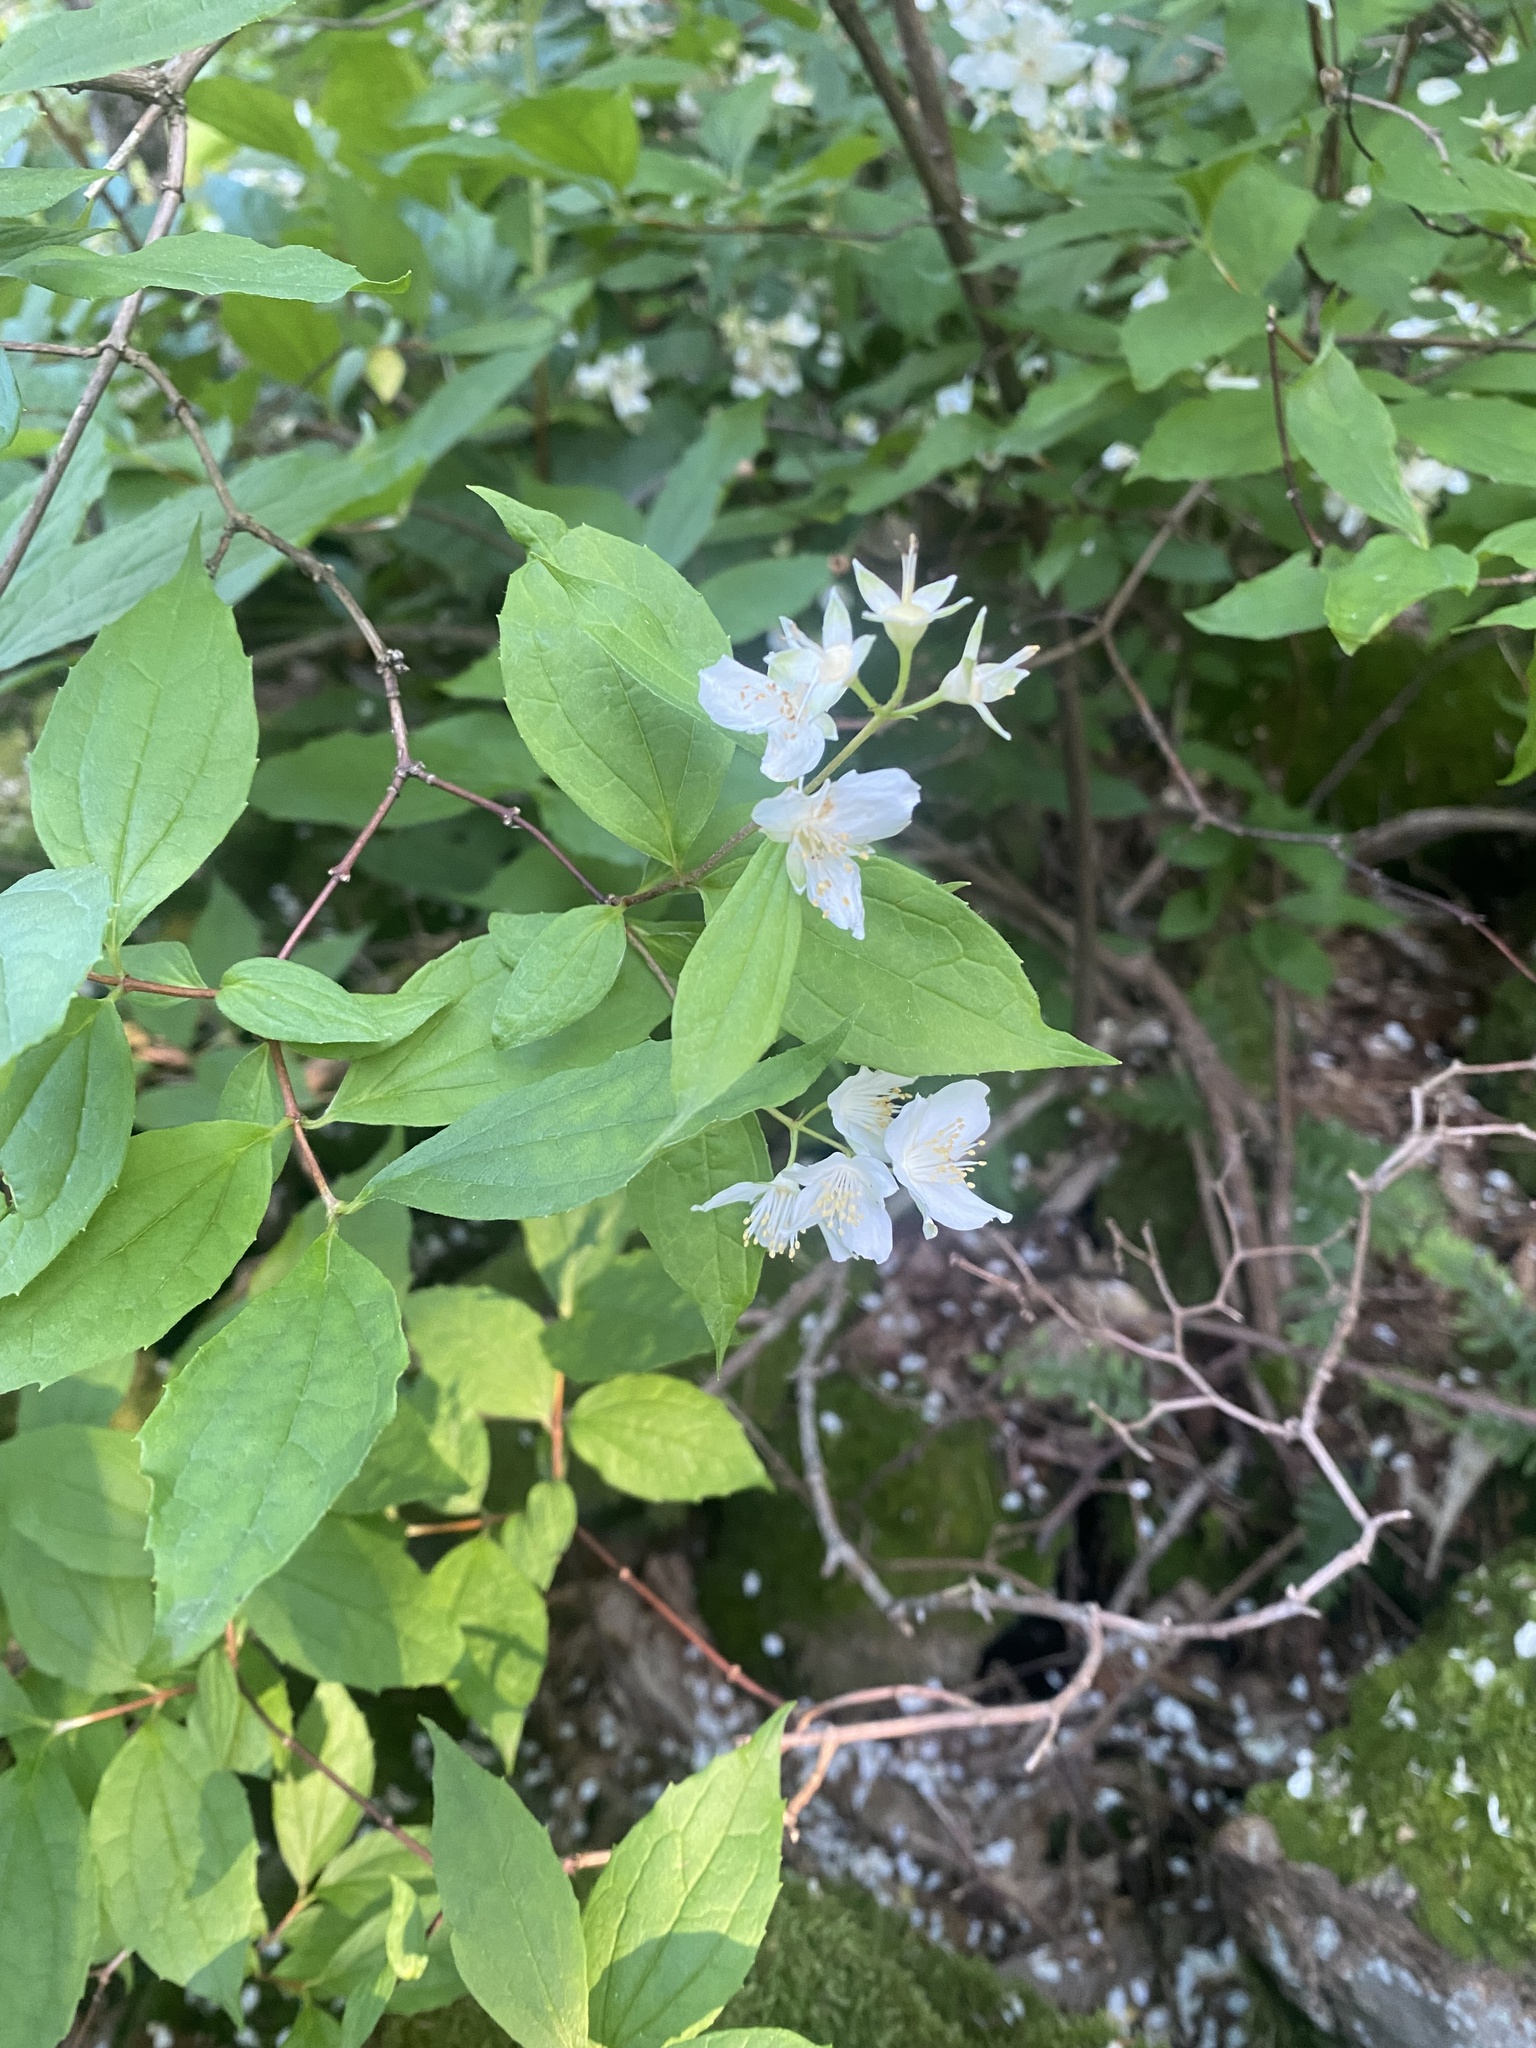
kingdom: Plantae
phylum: Tracheophyta
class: Magnoliopsida
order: Cornales
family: Hydrangeaceae
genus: Philadelphus
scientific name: Philadelphus coronarius
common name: Mock orange
